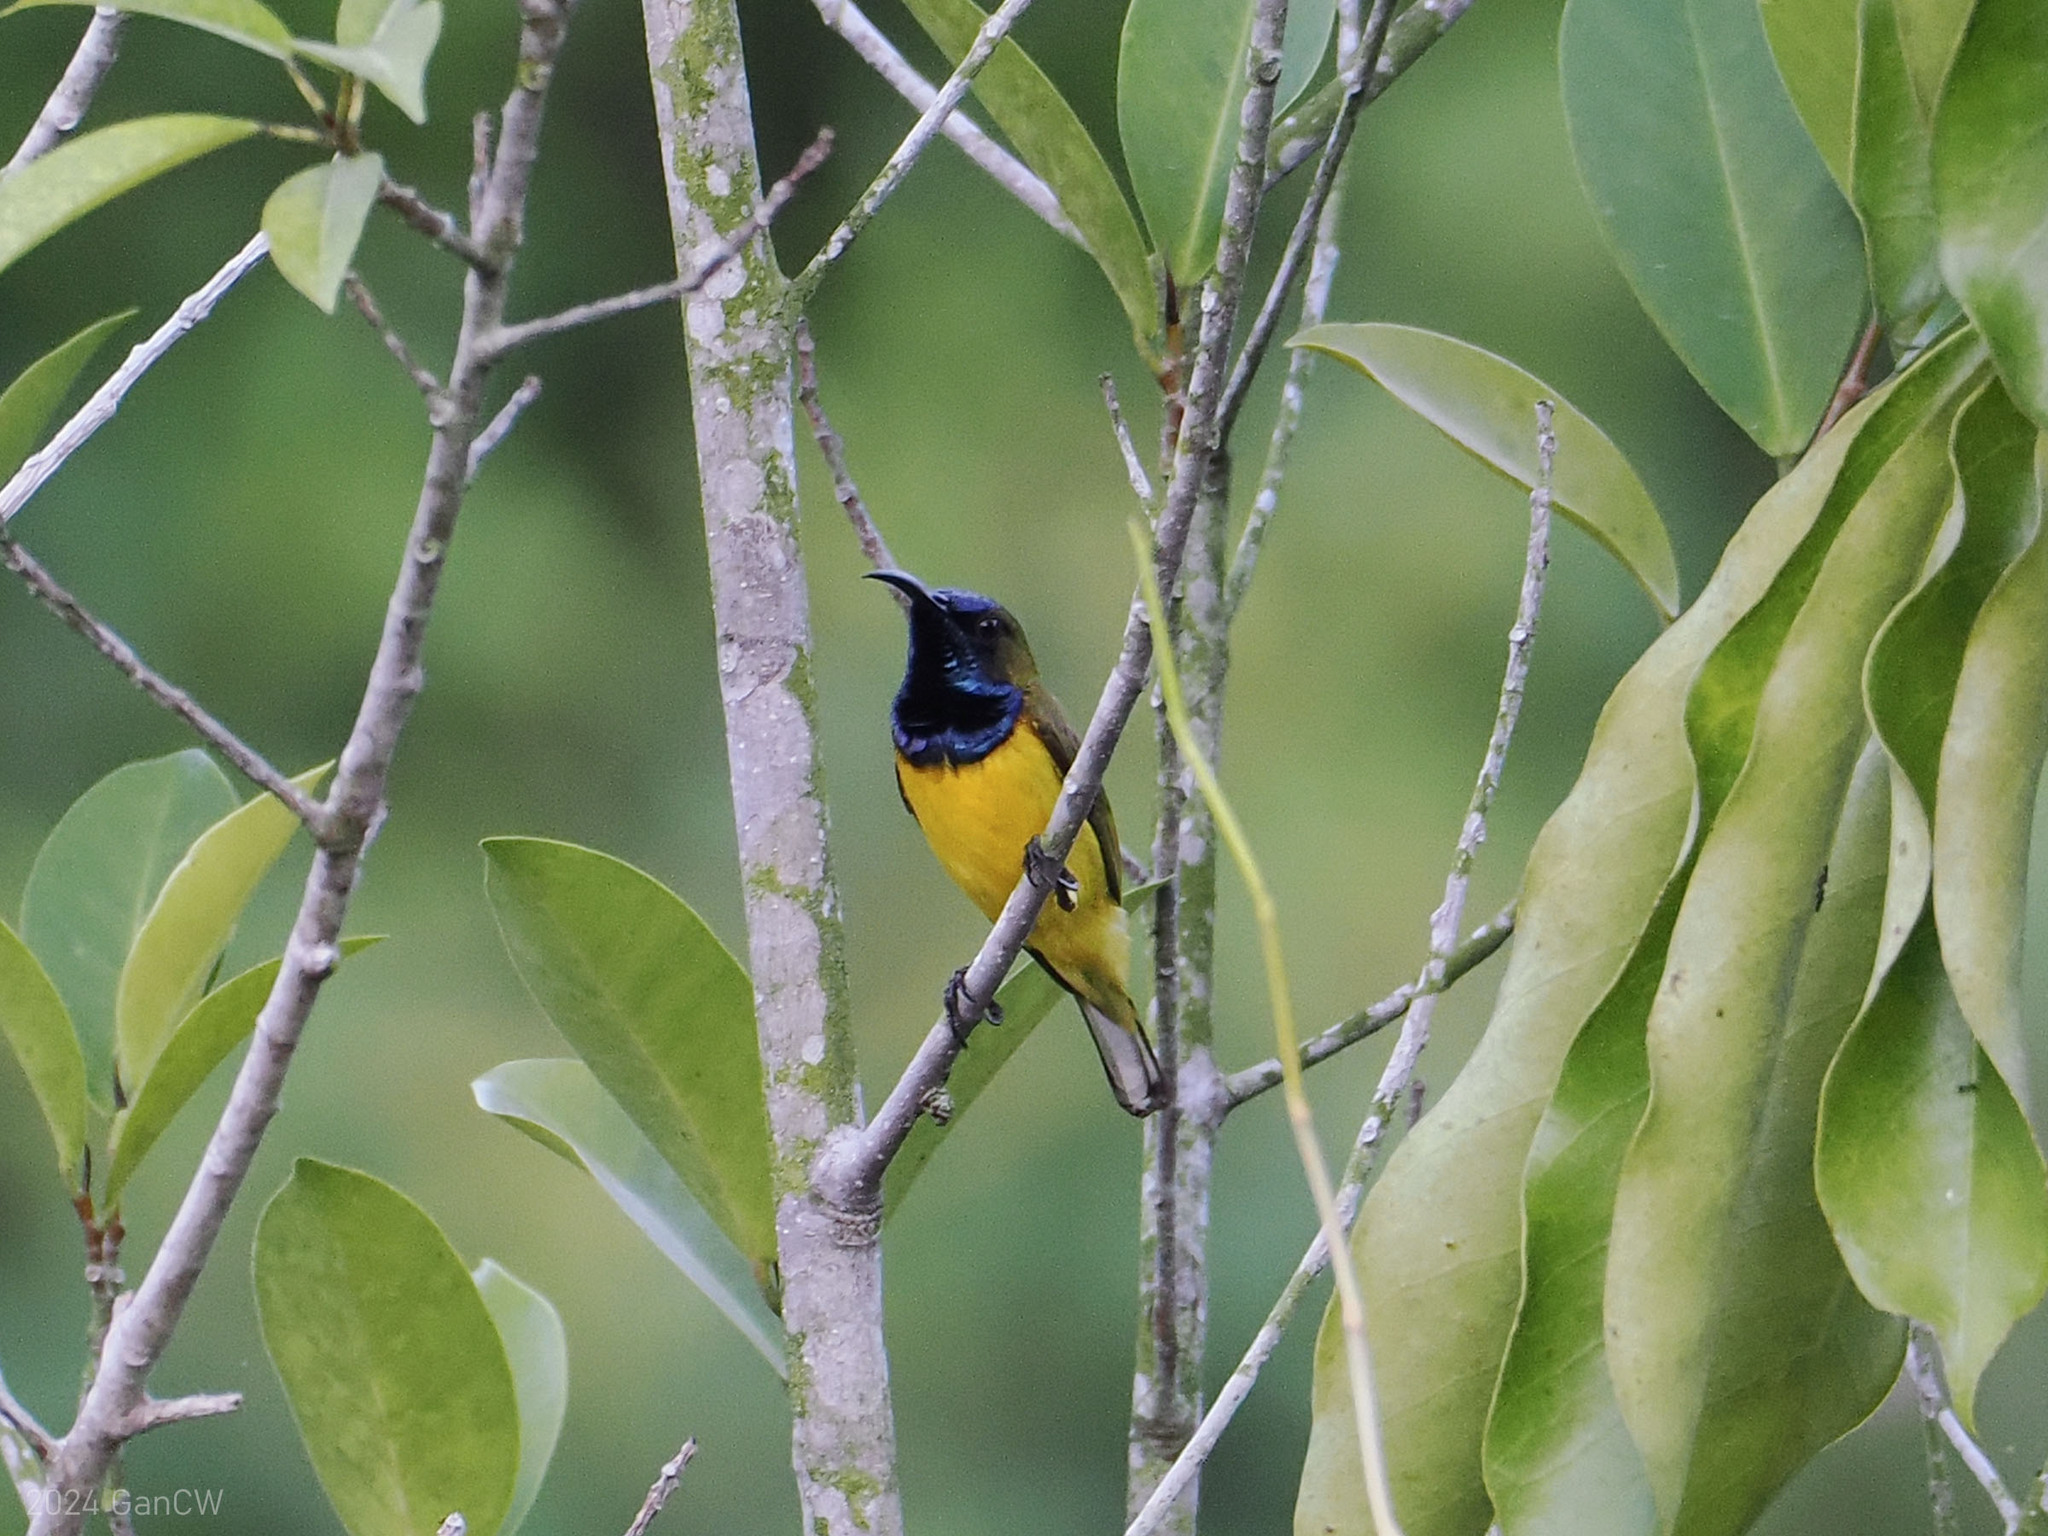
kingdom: Animalia
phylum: Chordata
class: Aves
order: Passeriformes
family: Nectariniidae
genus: Cinnyris
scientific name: Cinnyris
